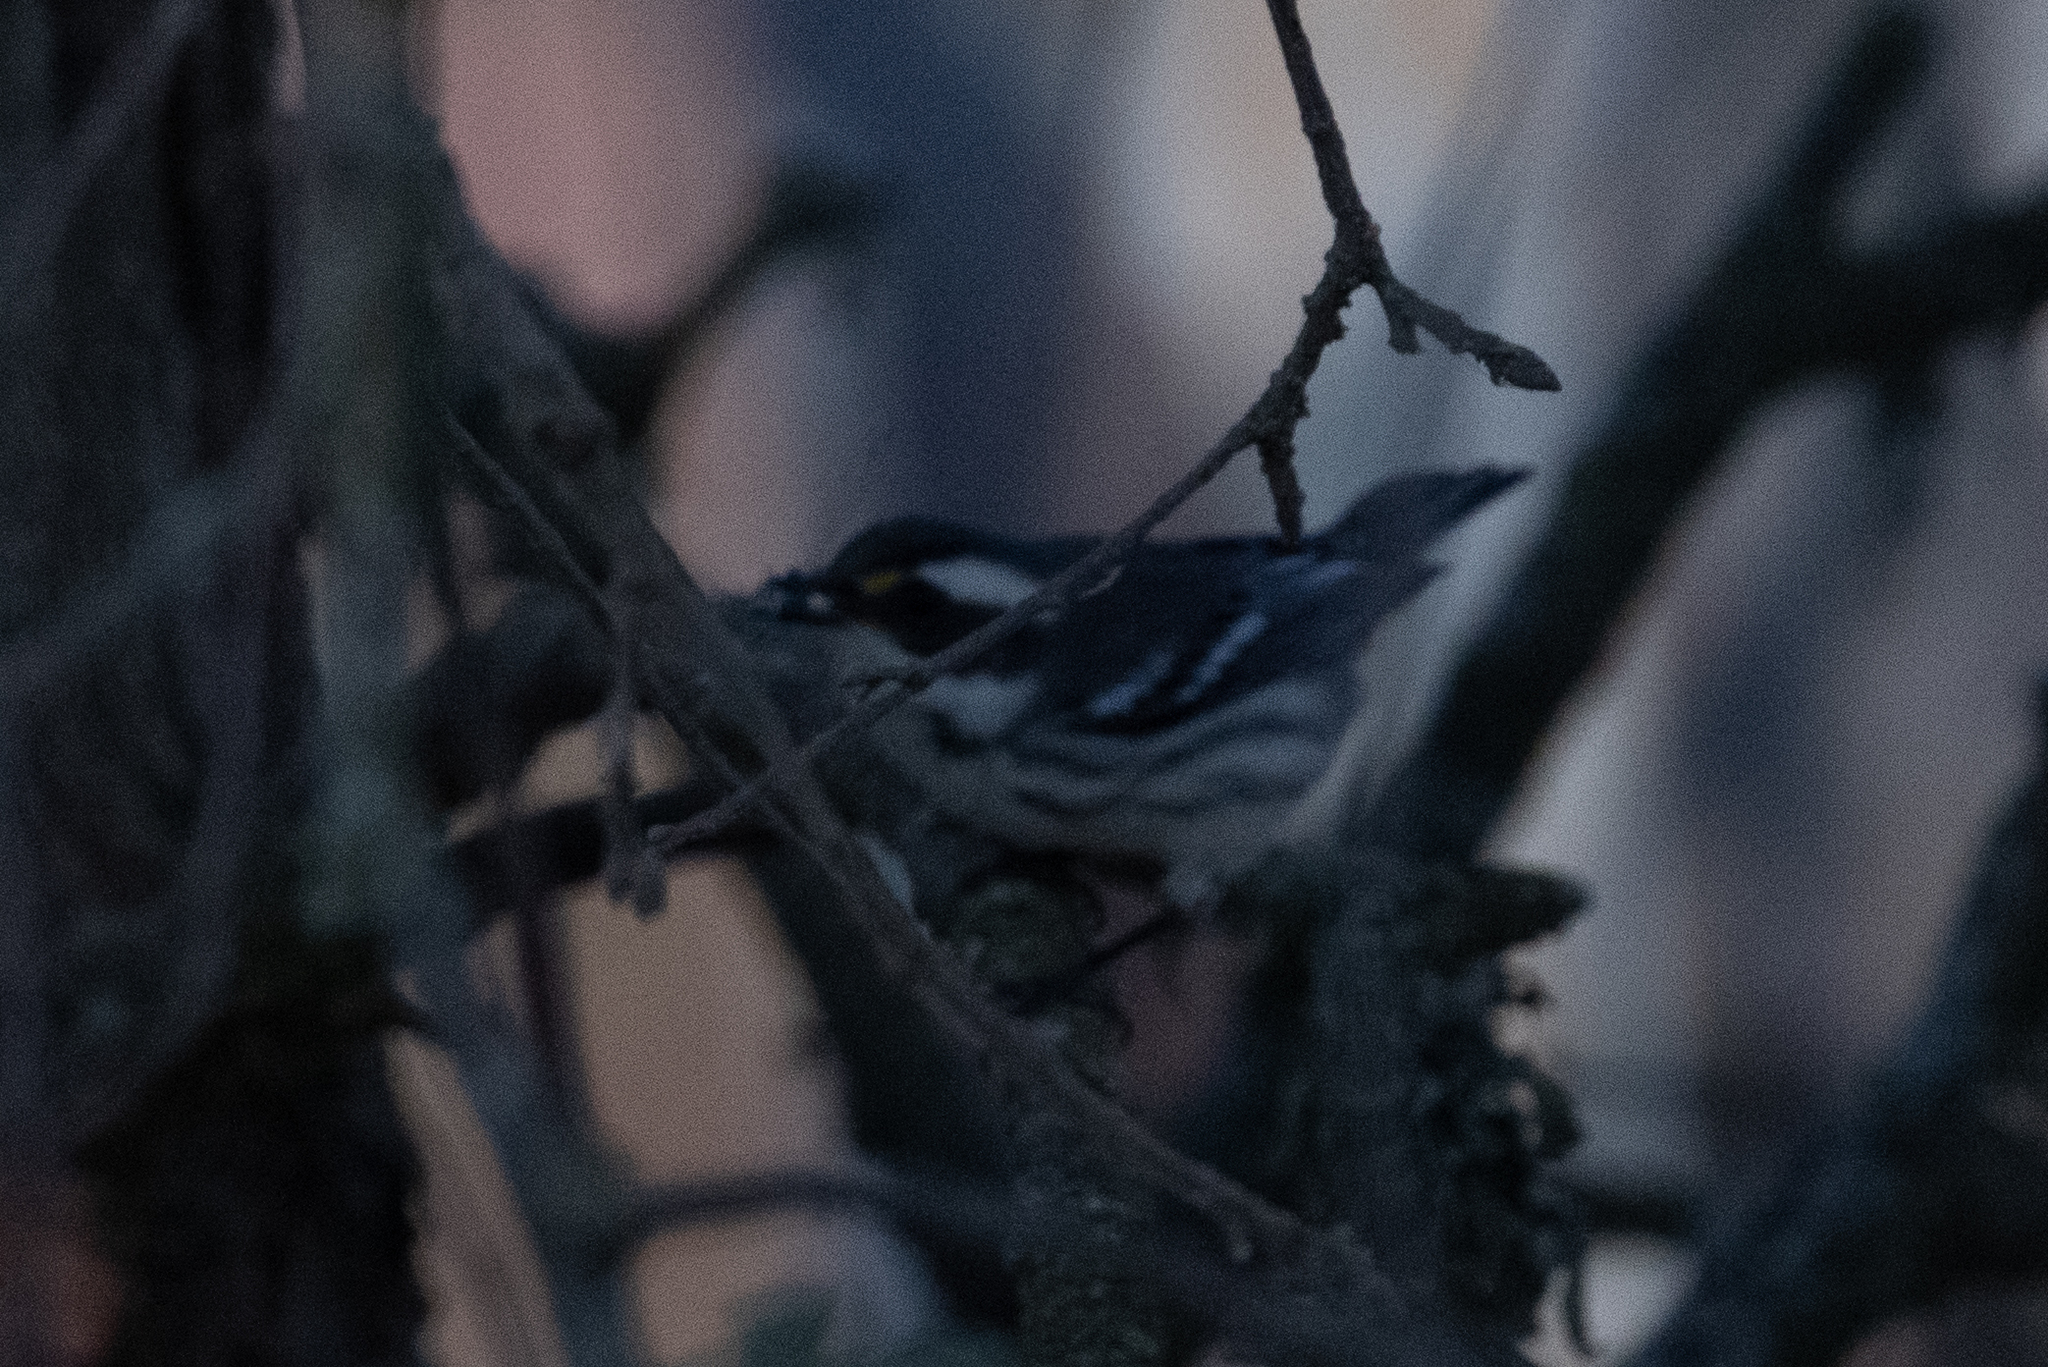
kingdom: Animalia
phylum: Chordata
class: Aves
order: Passeriformes
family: Parulidae
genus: Setophaga
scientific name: Setophaga nigrescens
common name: Black-throated gray warbler
